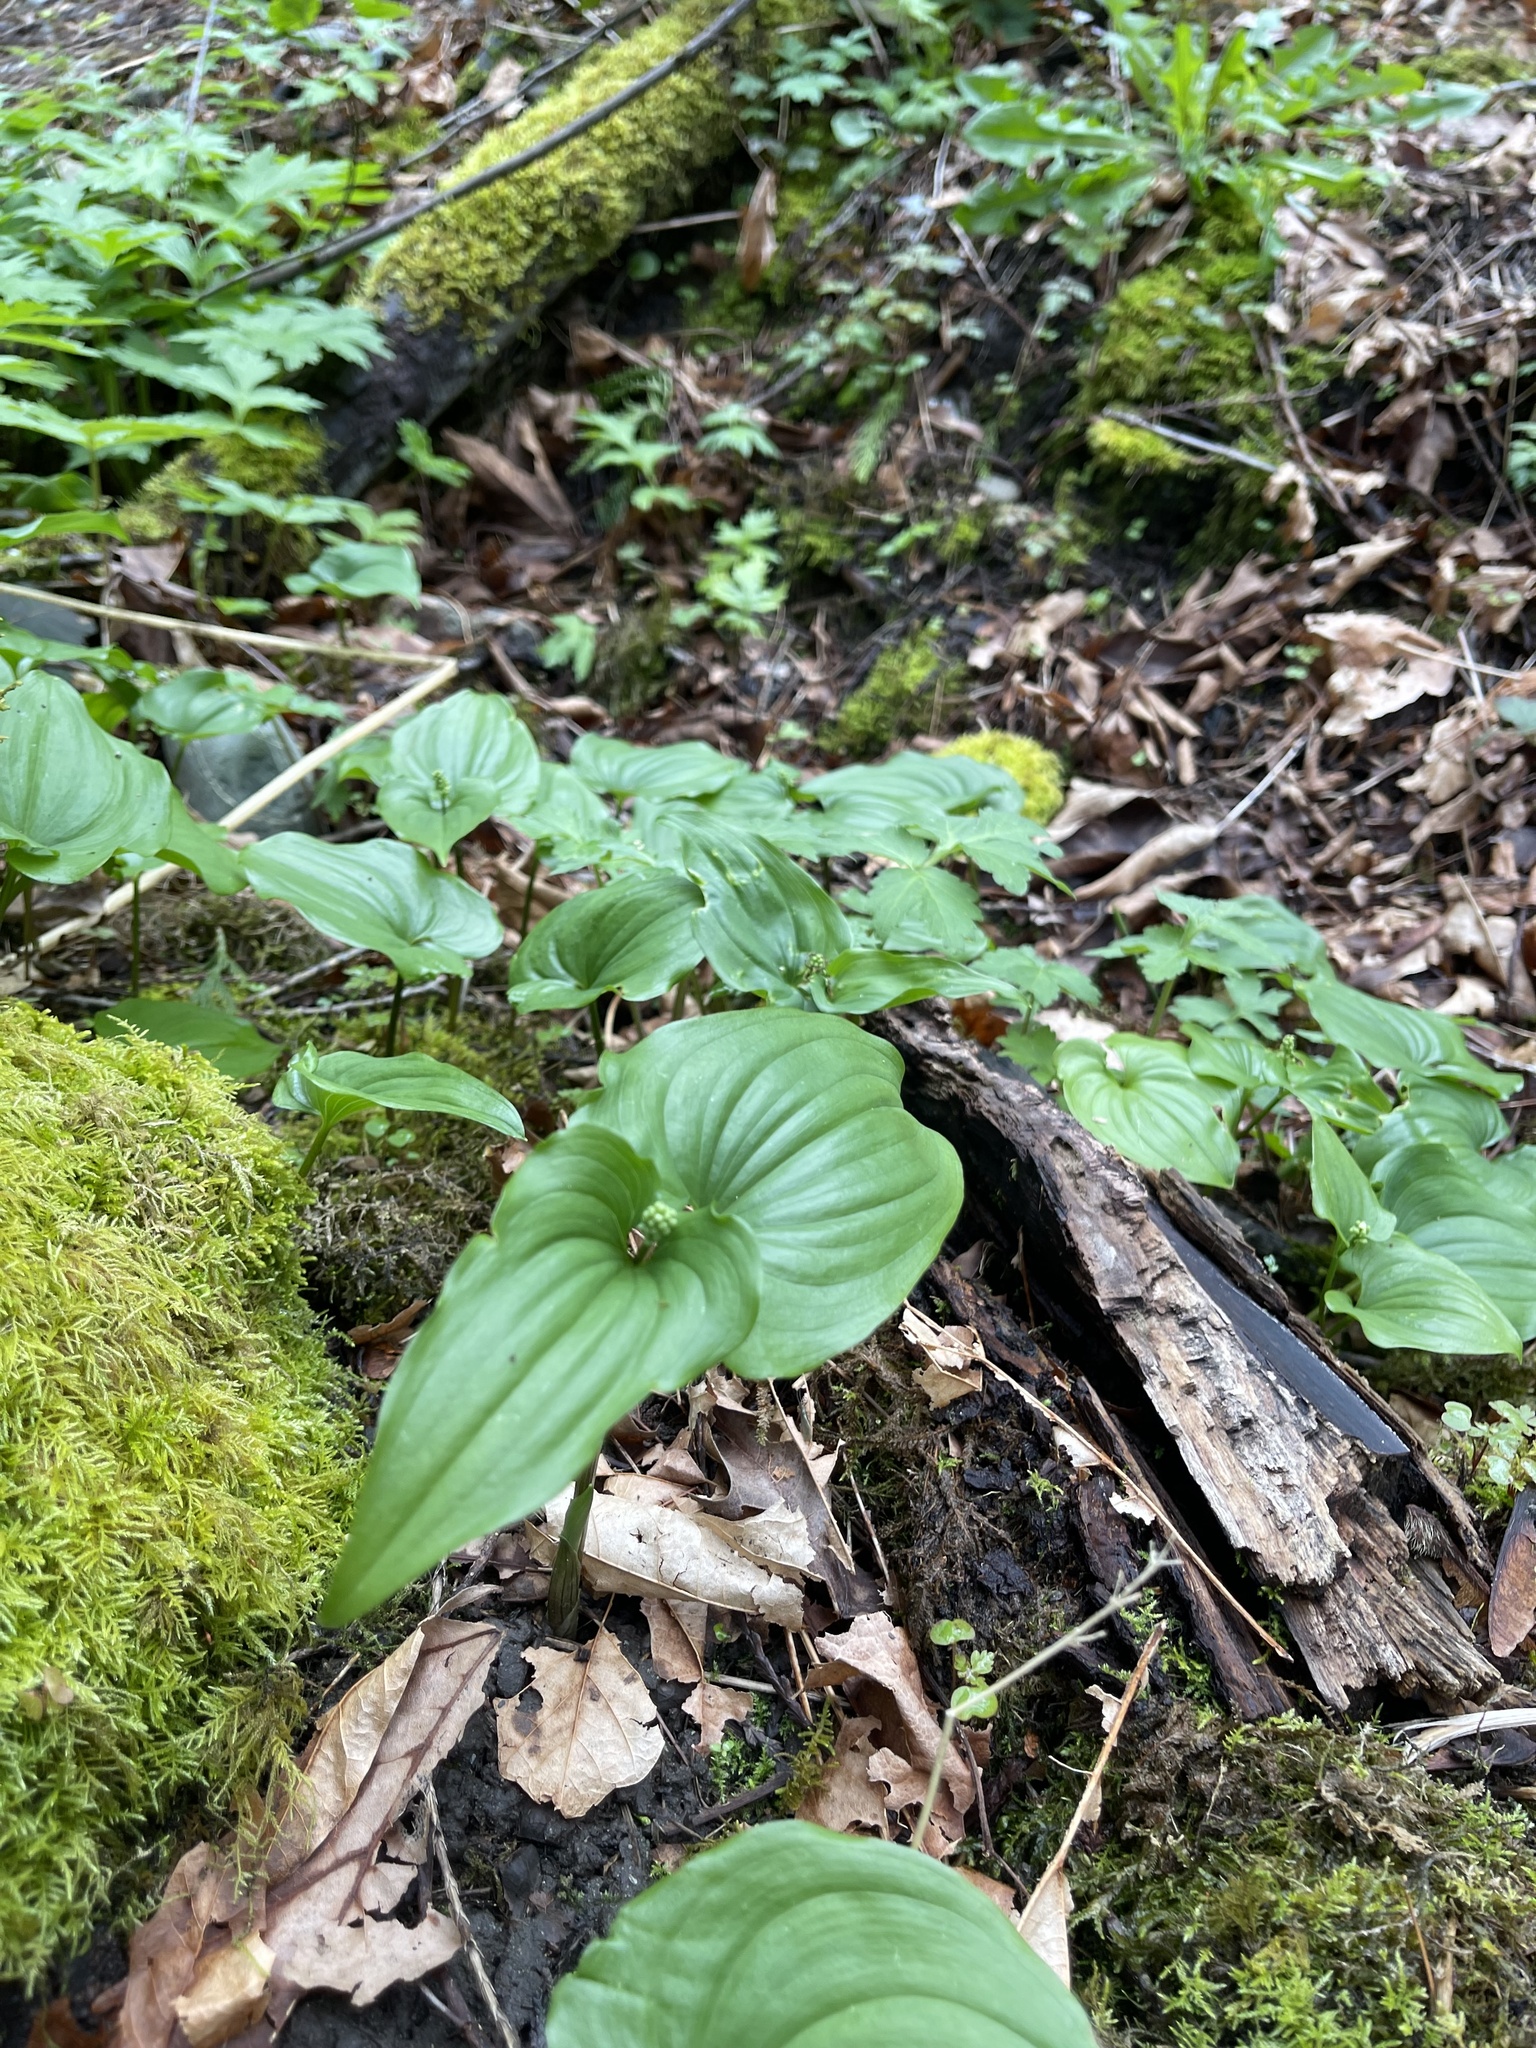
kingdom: Plantae
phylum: Tracheophyta
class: Liliopsida
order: Asparagales
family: Asparagaceae
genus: Maianthemum
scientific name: Maianthemum dilatatum
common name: False lily-of-the-valley
